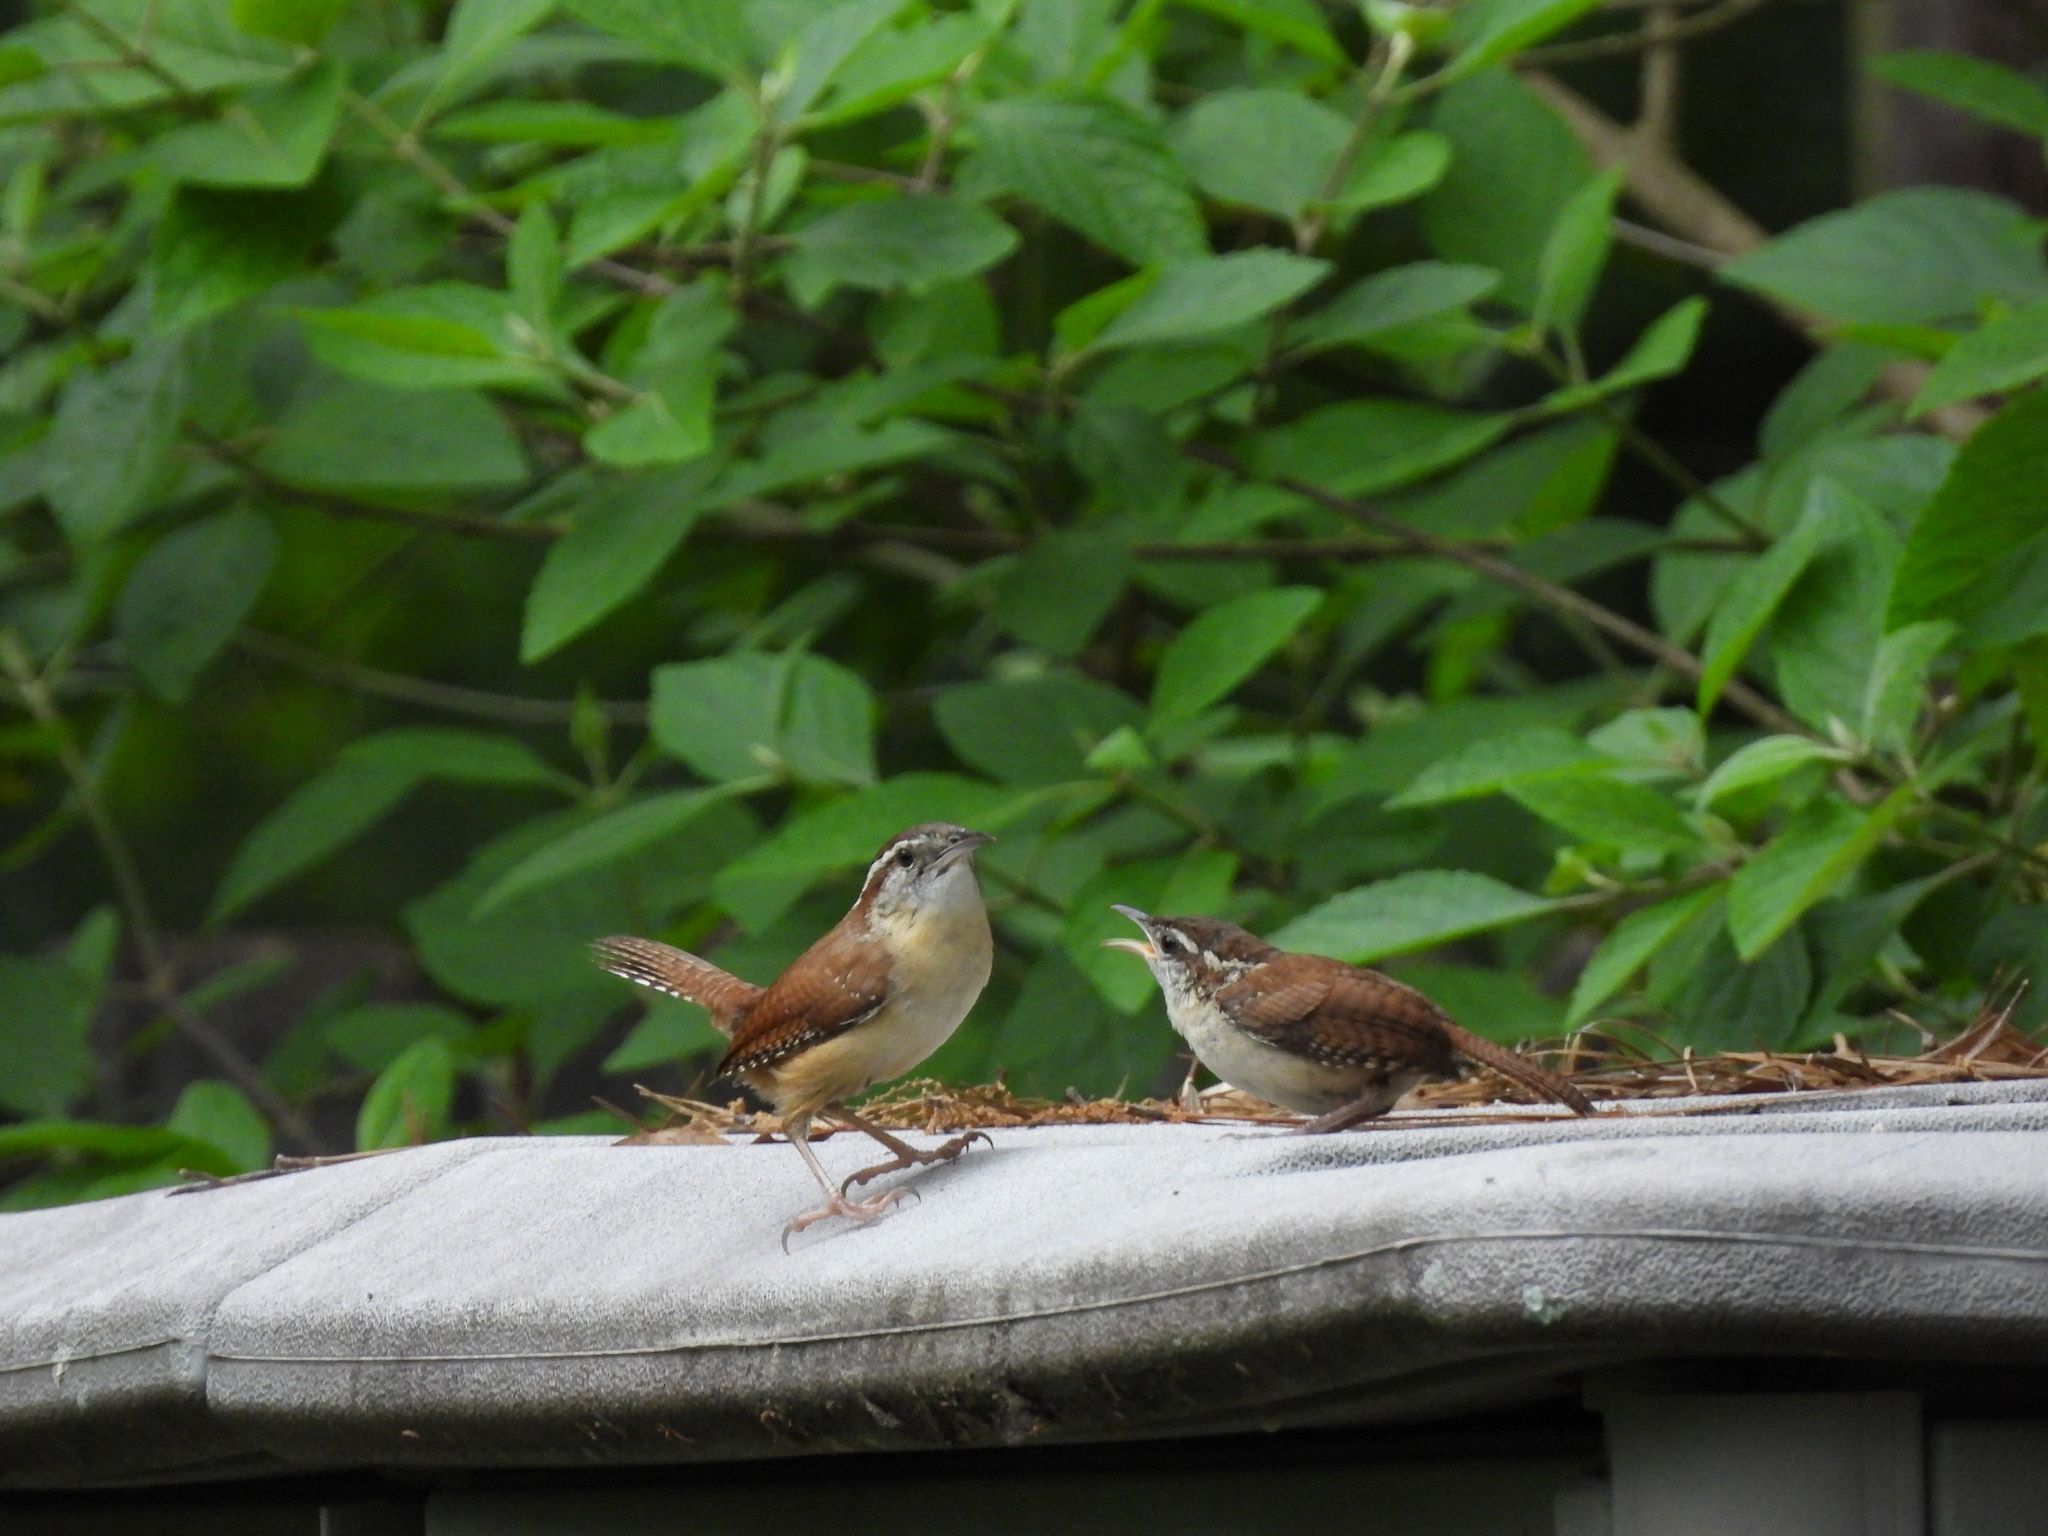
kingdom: Animalia
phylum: Chordata
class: Aves
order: Passeriformes
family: Troglodytidae
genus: Thryothorus
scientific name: Thryothorus ludovicianus
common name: Carolina wren
